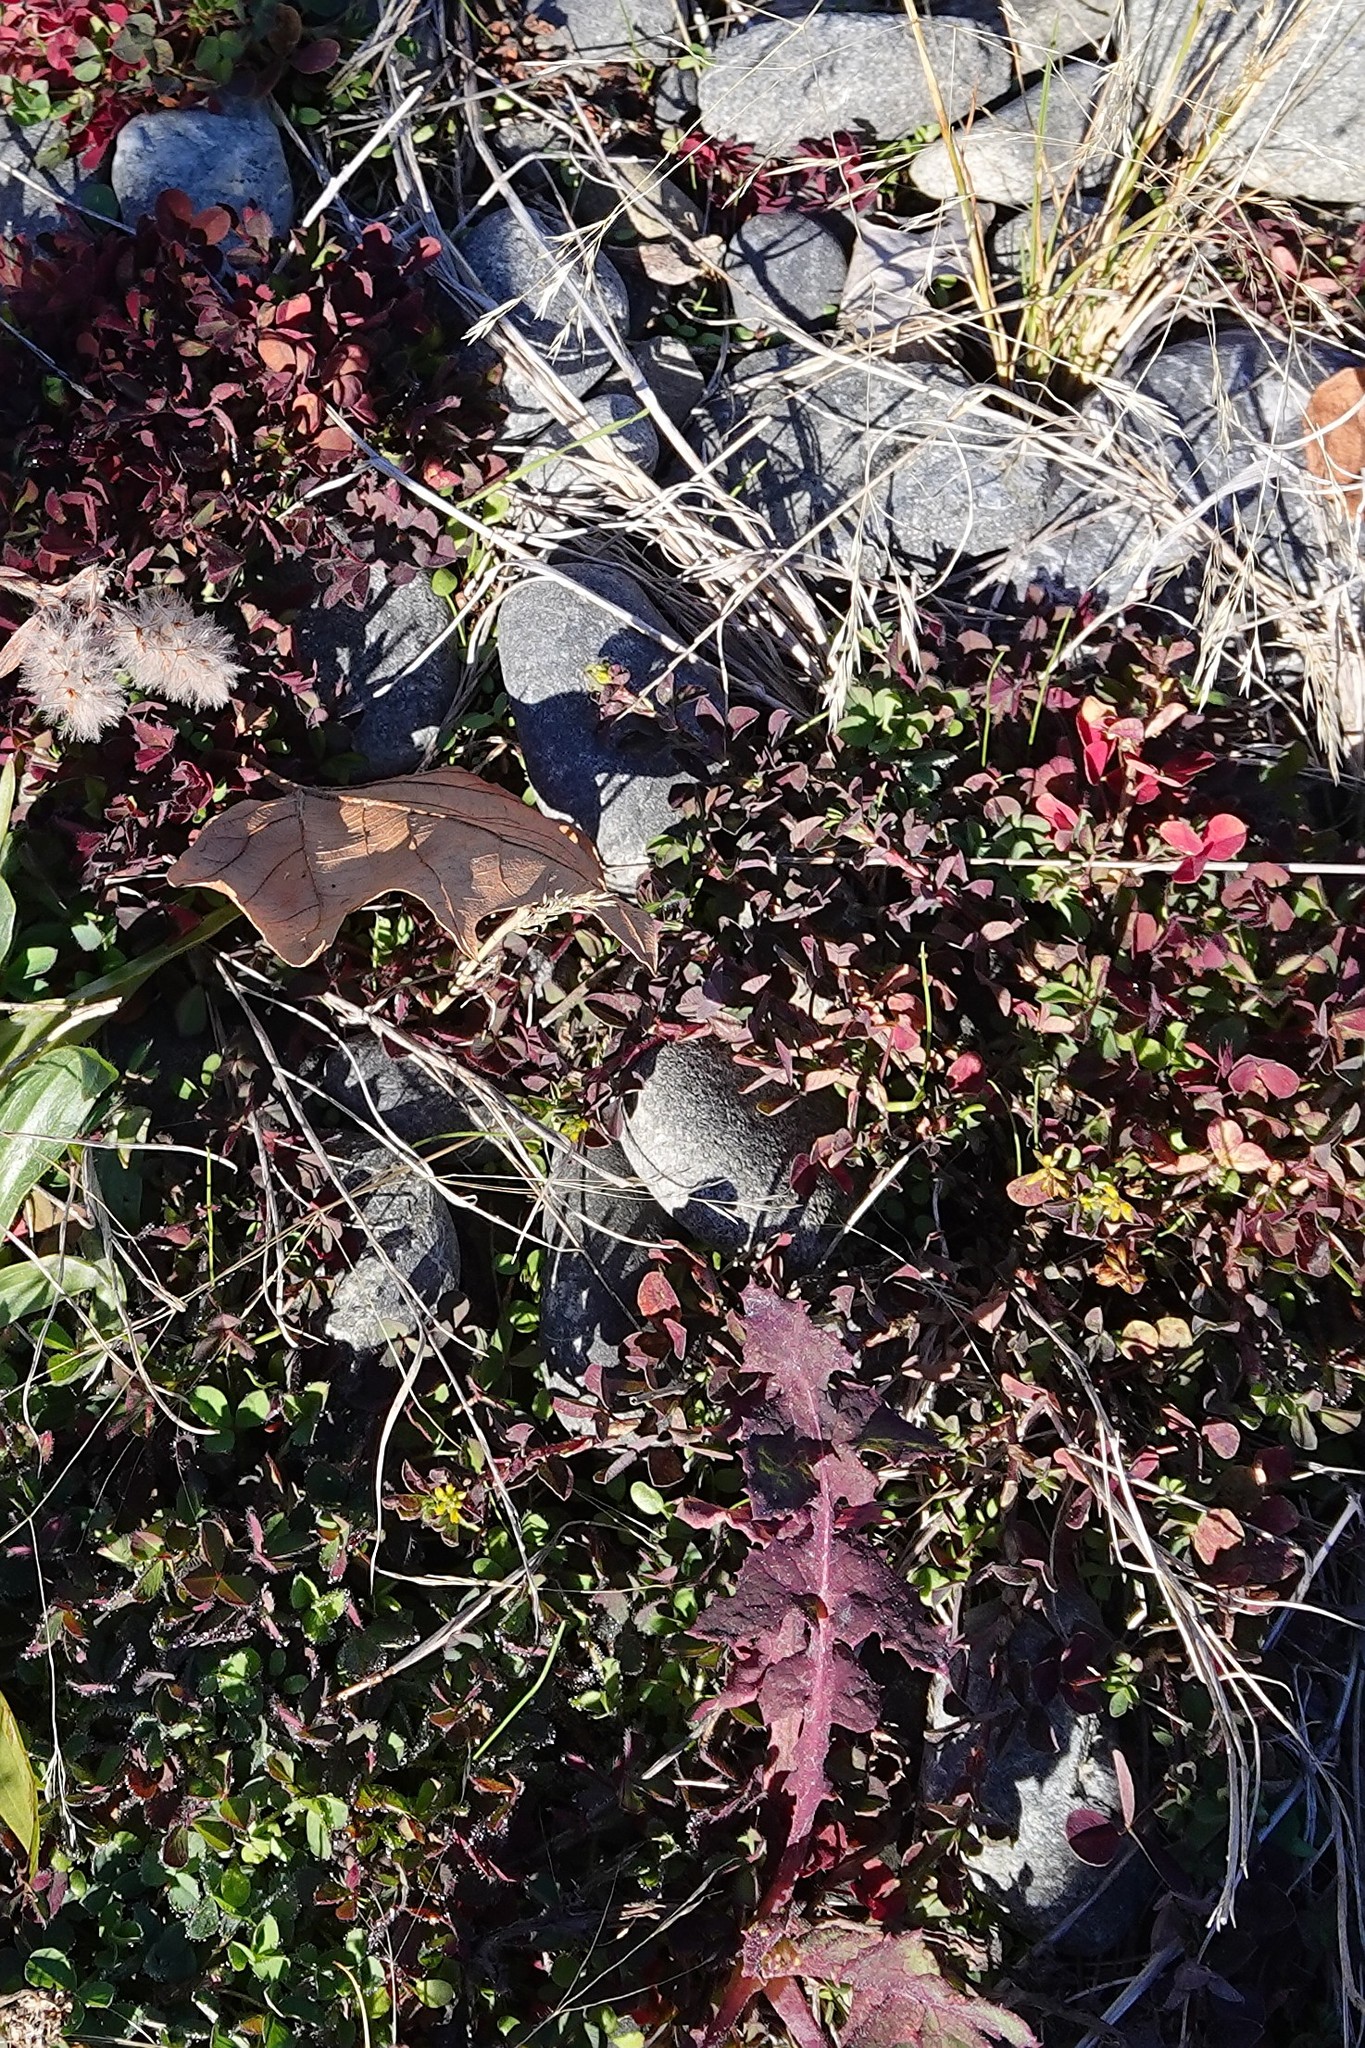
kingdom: Plantae
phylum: Tracheophyta
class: Magnoliopsida
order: Fabales
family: Fabaceae
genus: Trifolium
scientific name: Trifolium dubium
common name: Suckling clover
